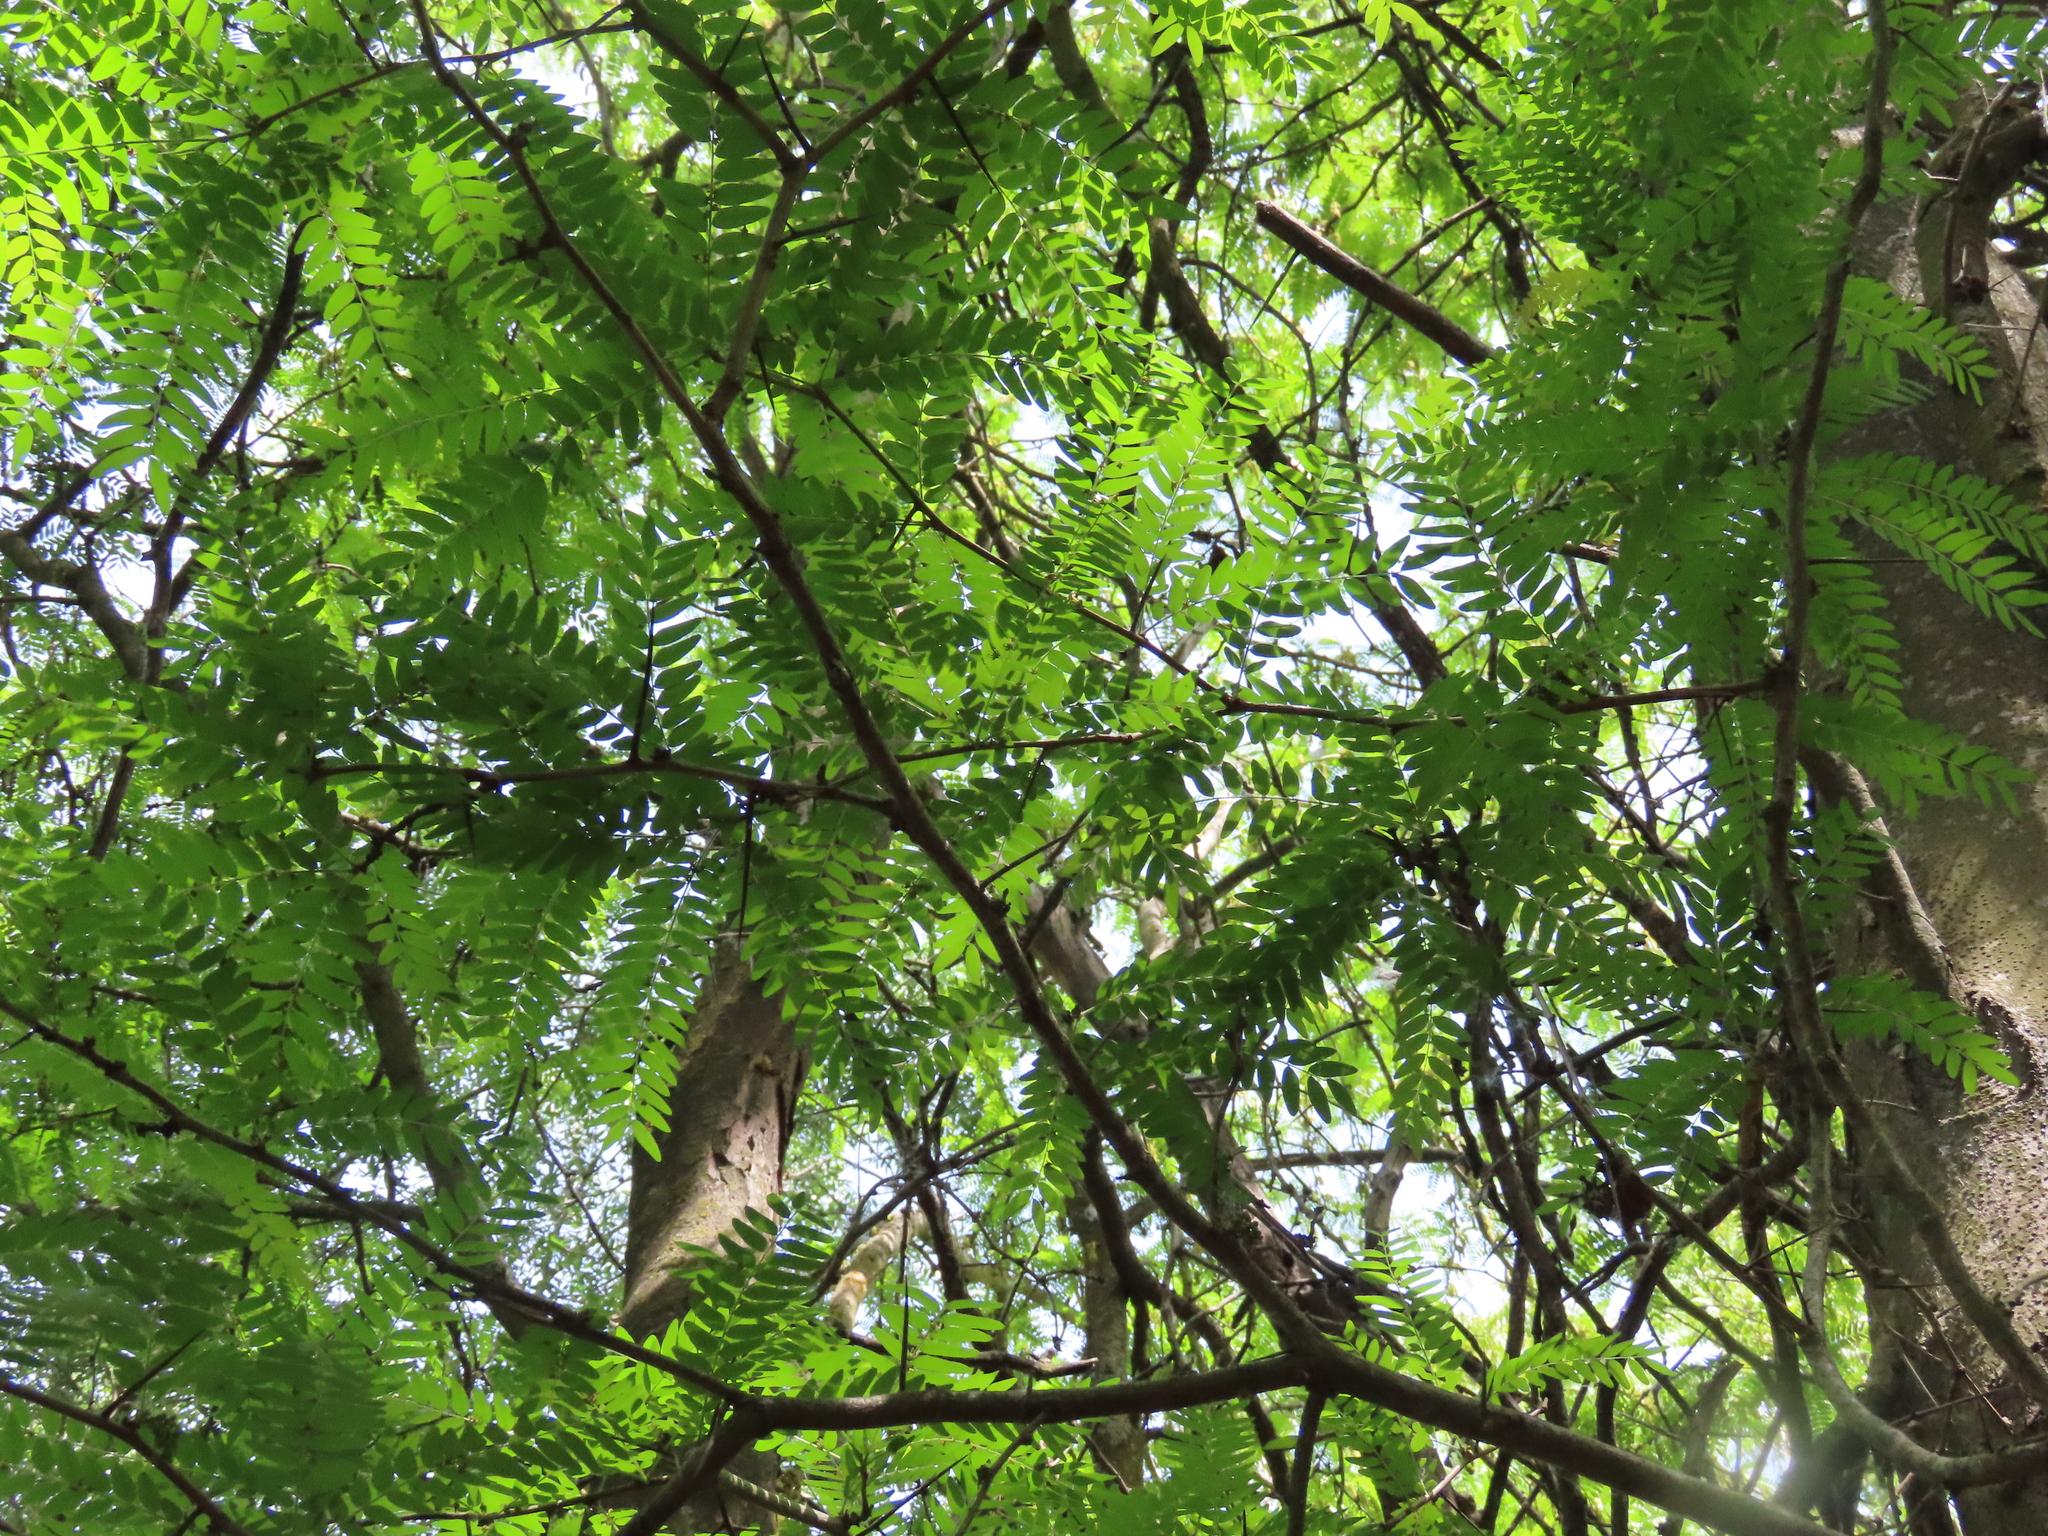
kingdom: Plantae
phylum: Tracheophyta
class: Magnoliopsida
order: Fabales
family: Fabaceae
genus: Gleditsia
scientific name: Gleditsia triacanthos
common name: Common honeylocust
